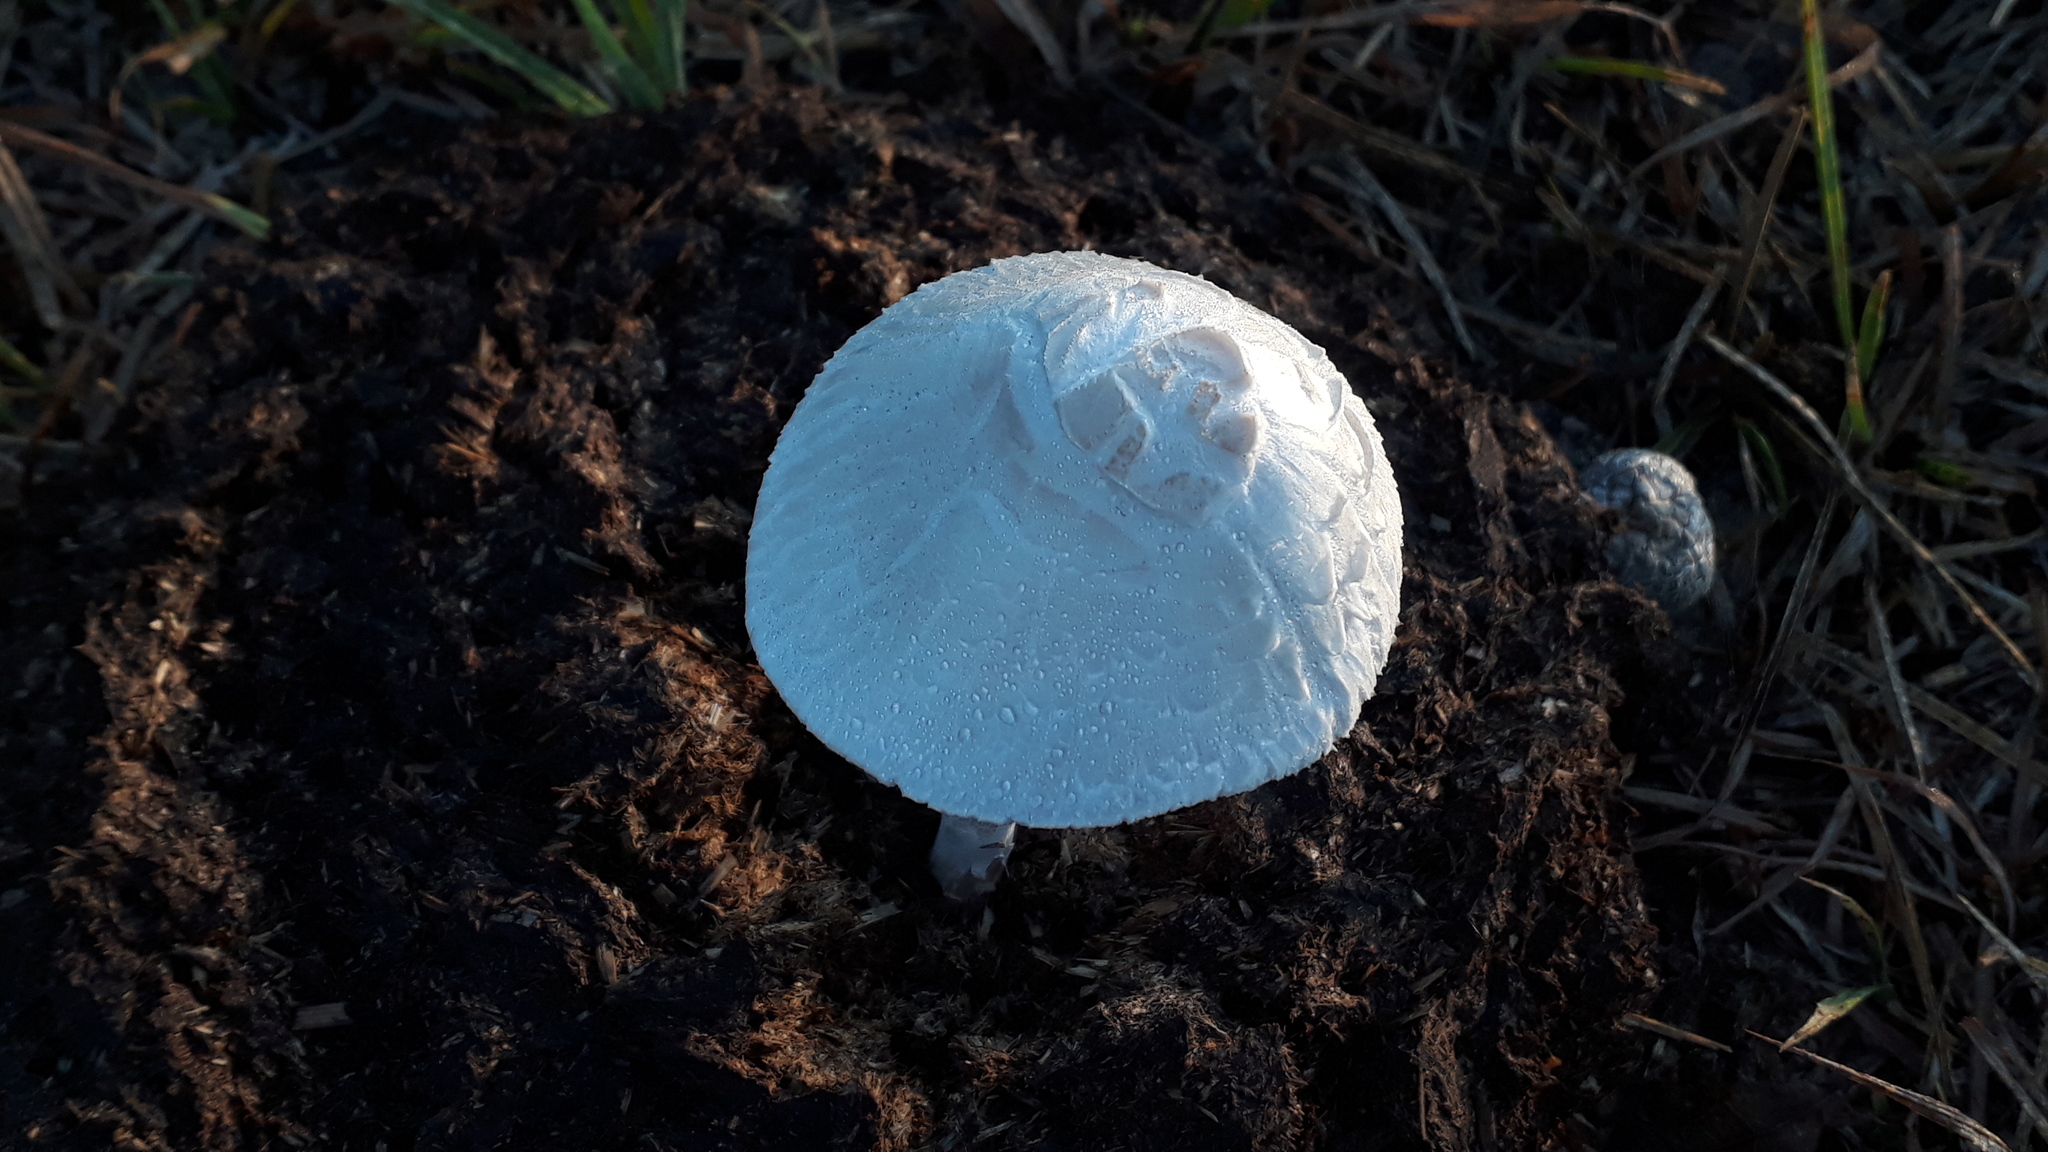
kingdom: Fungi
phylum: Basidiomycota
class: Agaricomycetes
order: Agaricales
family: Bolbitiaceae
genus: Panaeolus
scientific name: Panaeolus antillarum
